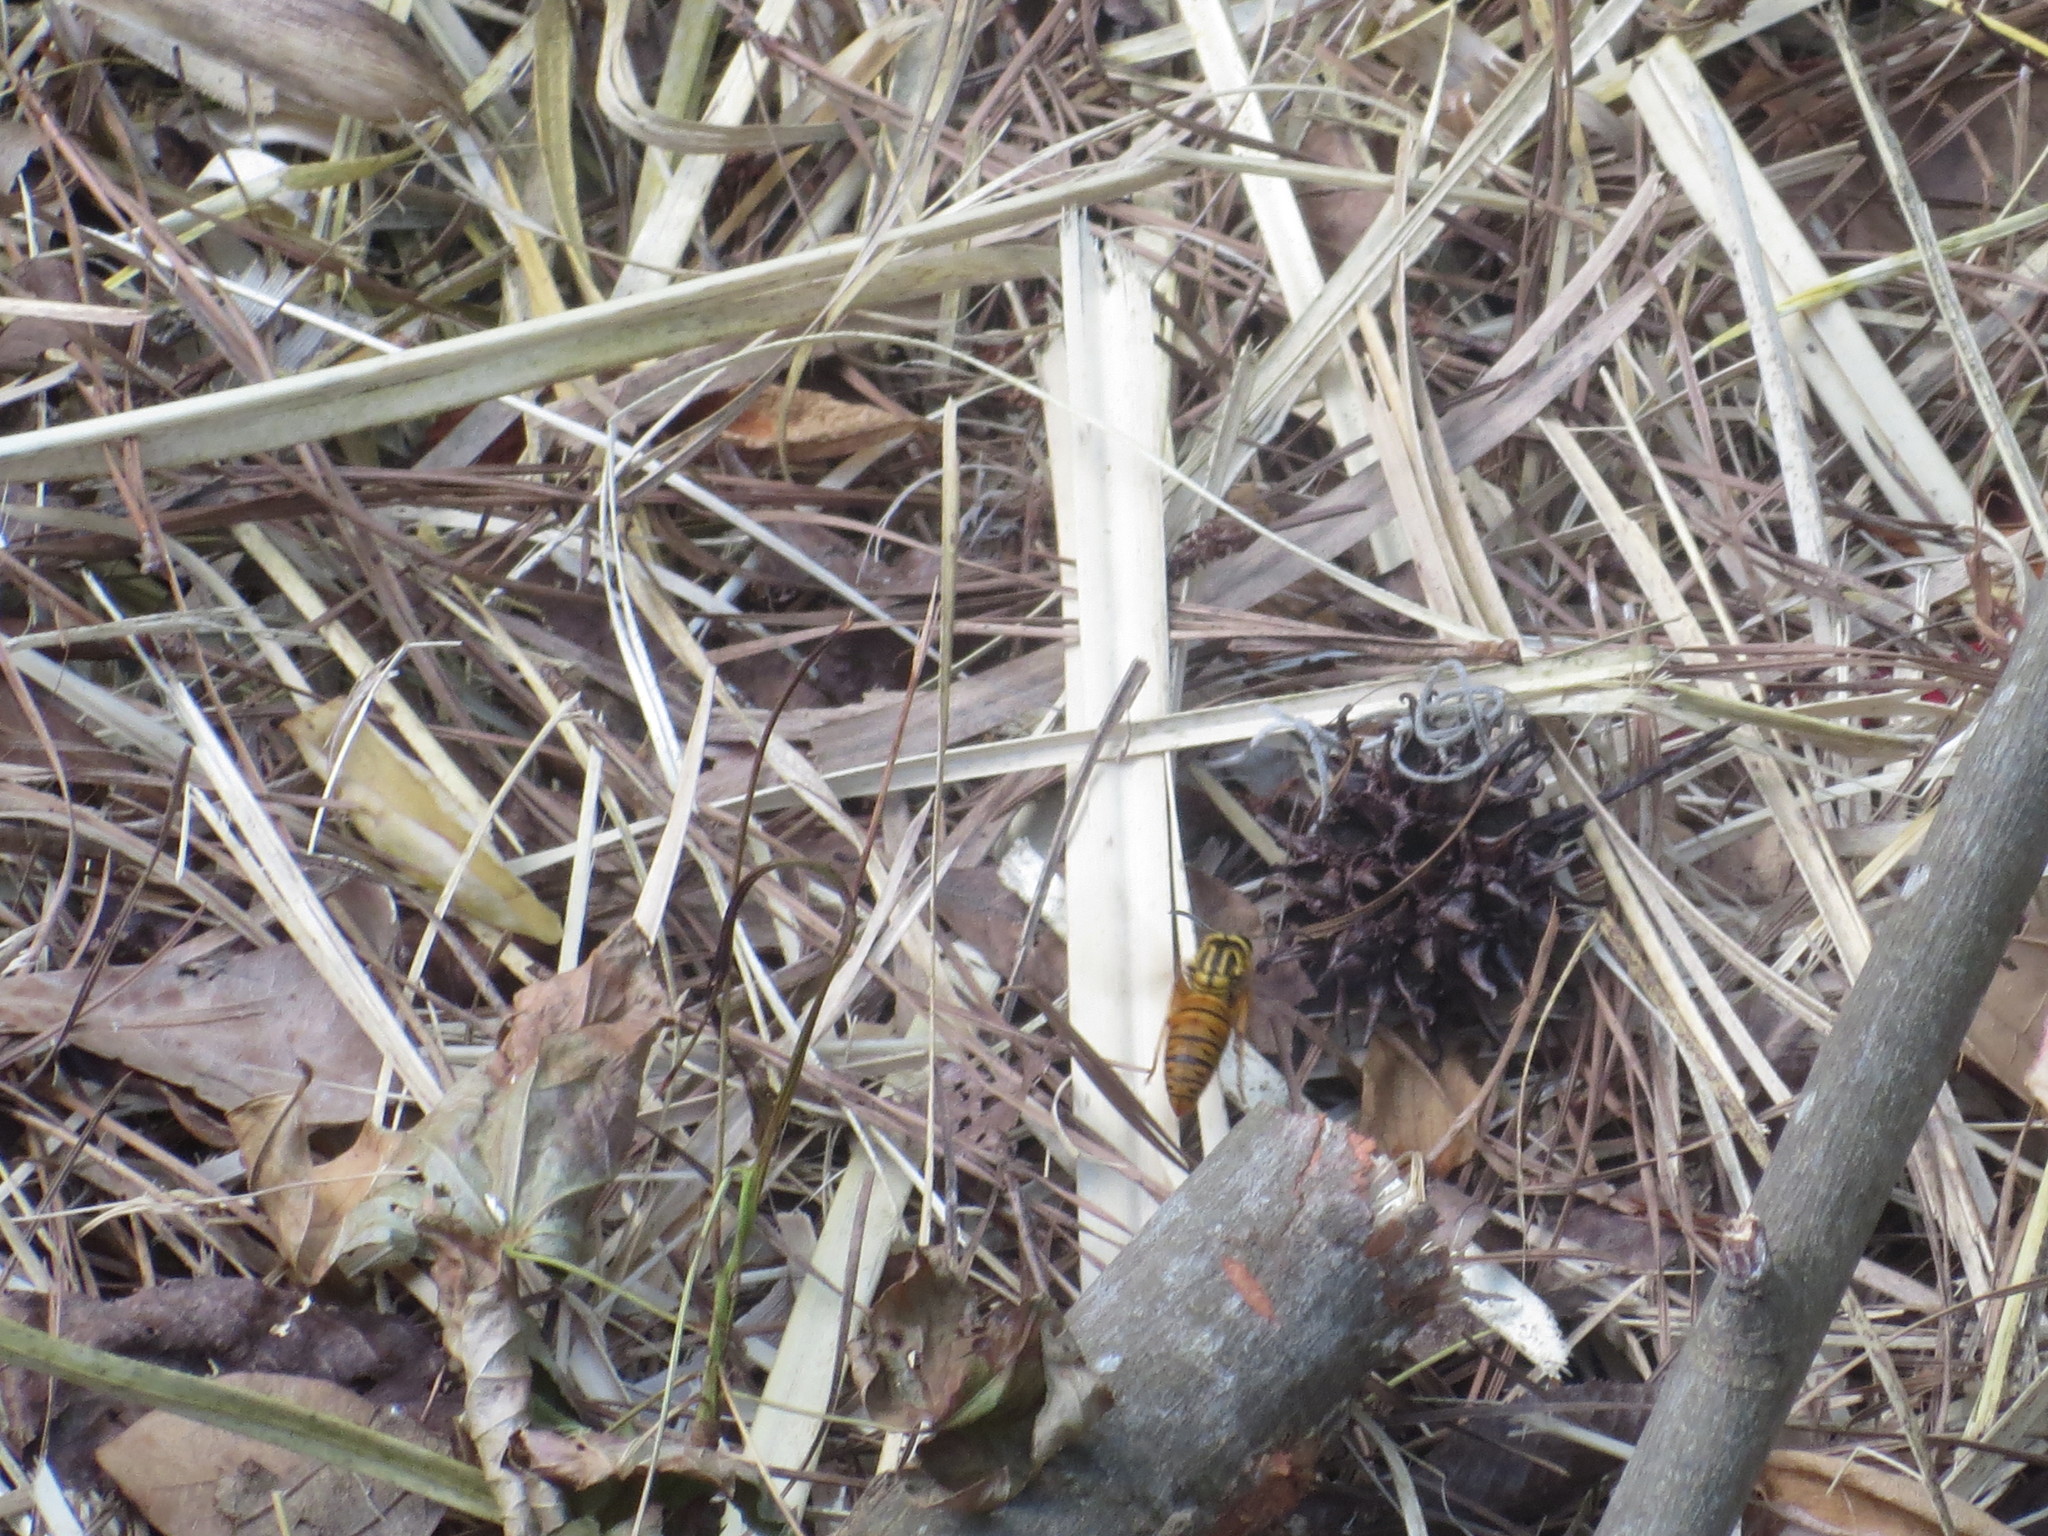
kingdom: Animalia
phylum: Arthropoda
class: Insecta
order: Hymenoptera
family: Vespidae
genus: Vespula
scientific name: Vespula squamosa
